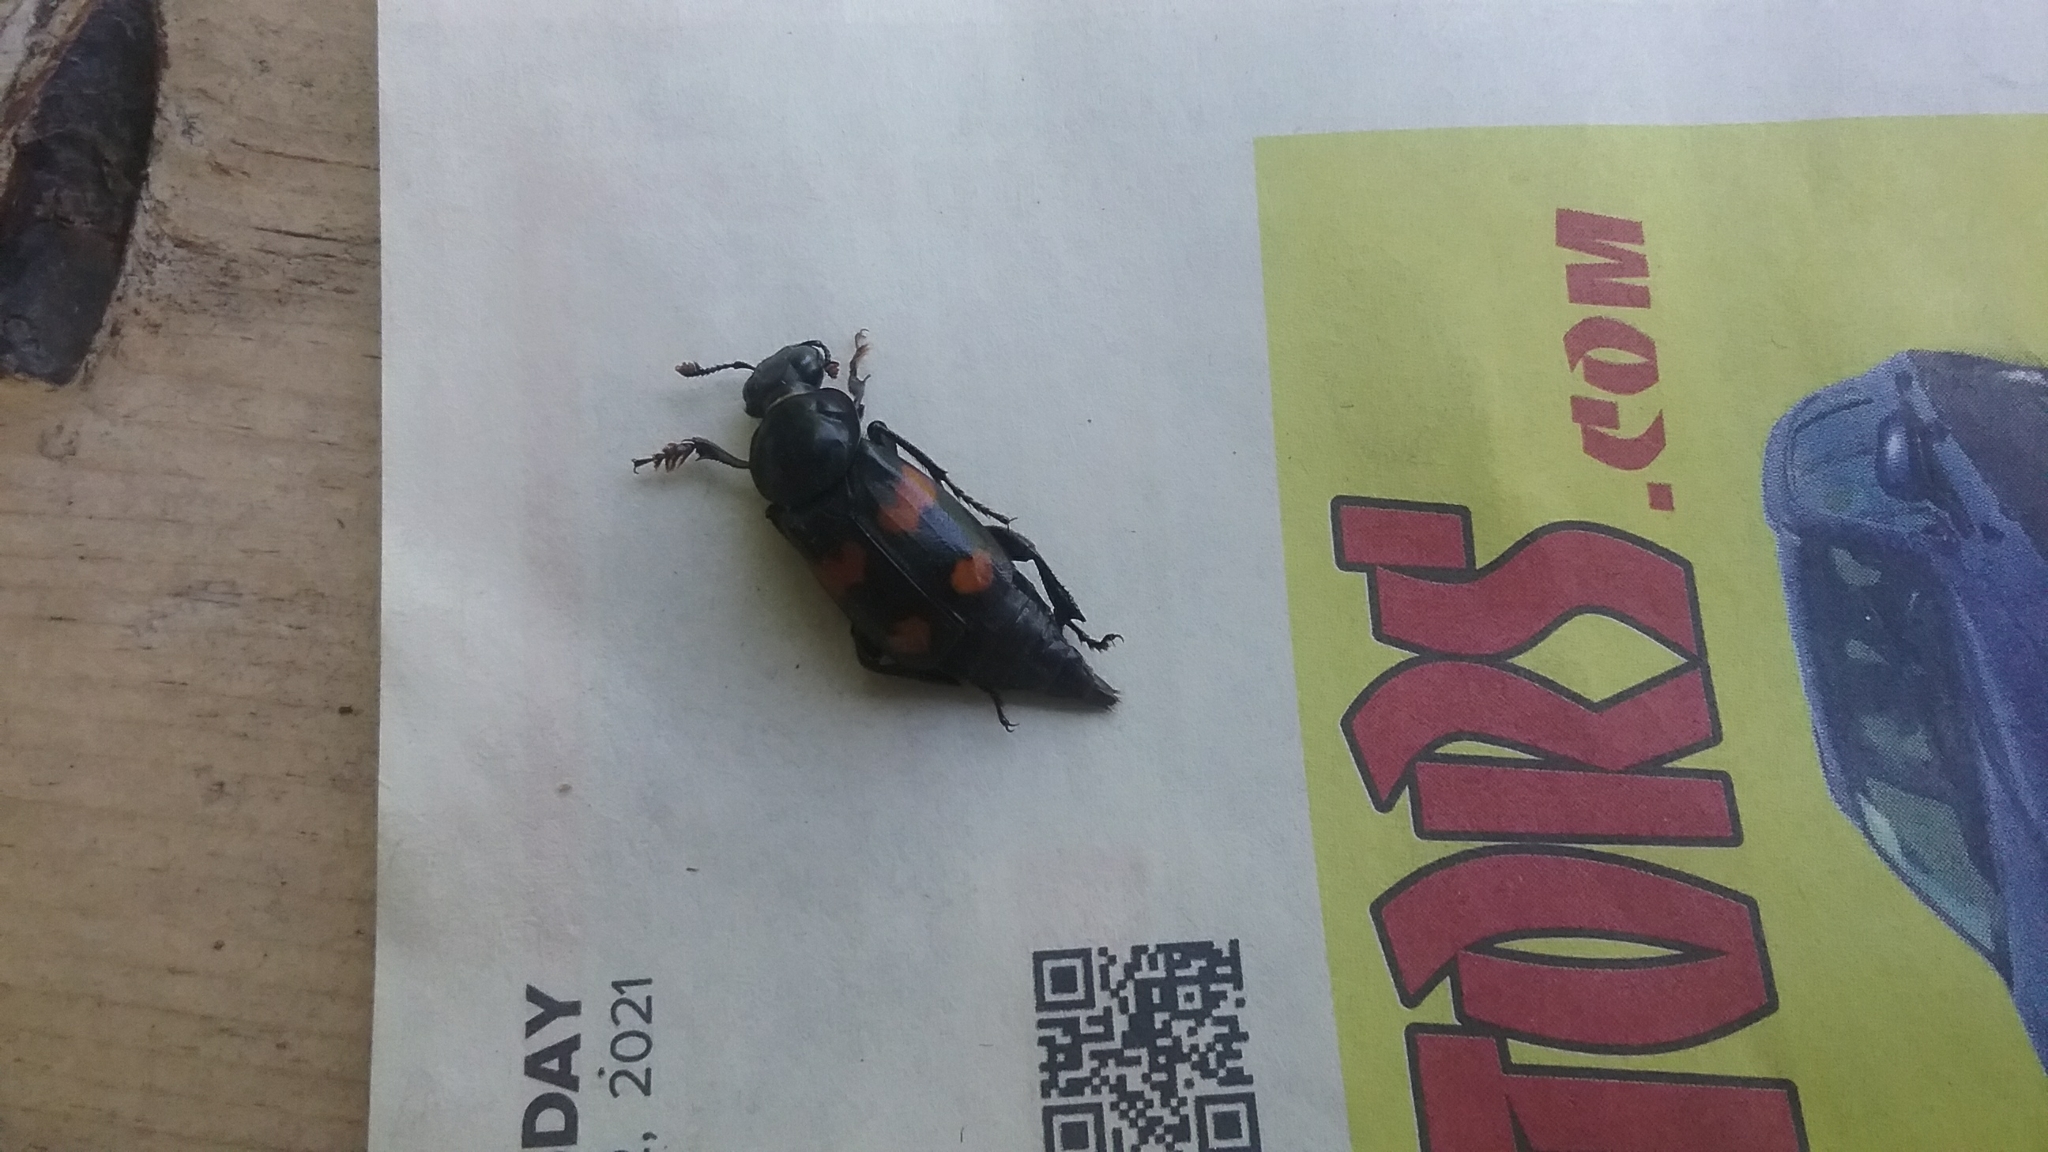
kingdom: Animalia
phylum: Arthropoda
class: Insecta
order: Coleoptera
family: Staphylinidae
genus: Nicrophorus
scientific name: Nicrophorus orbicollis
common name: Roundneck sexton beetle
